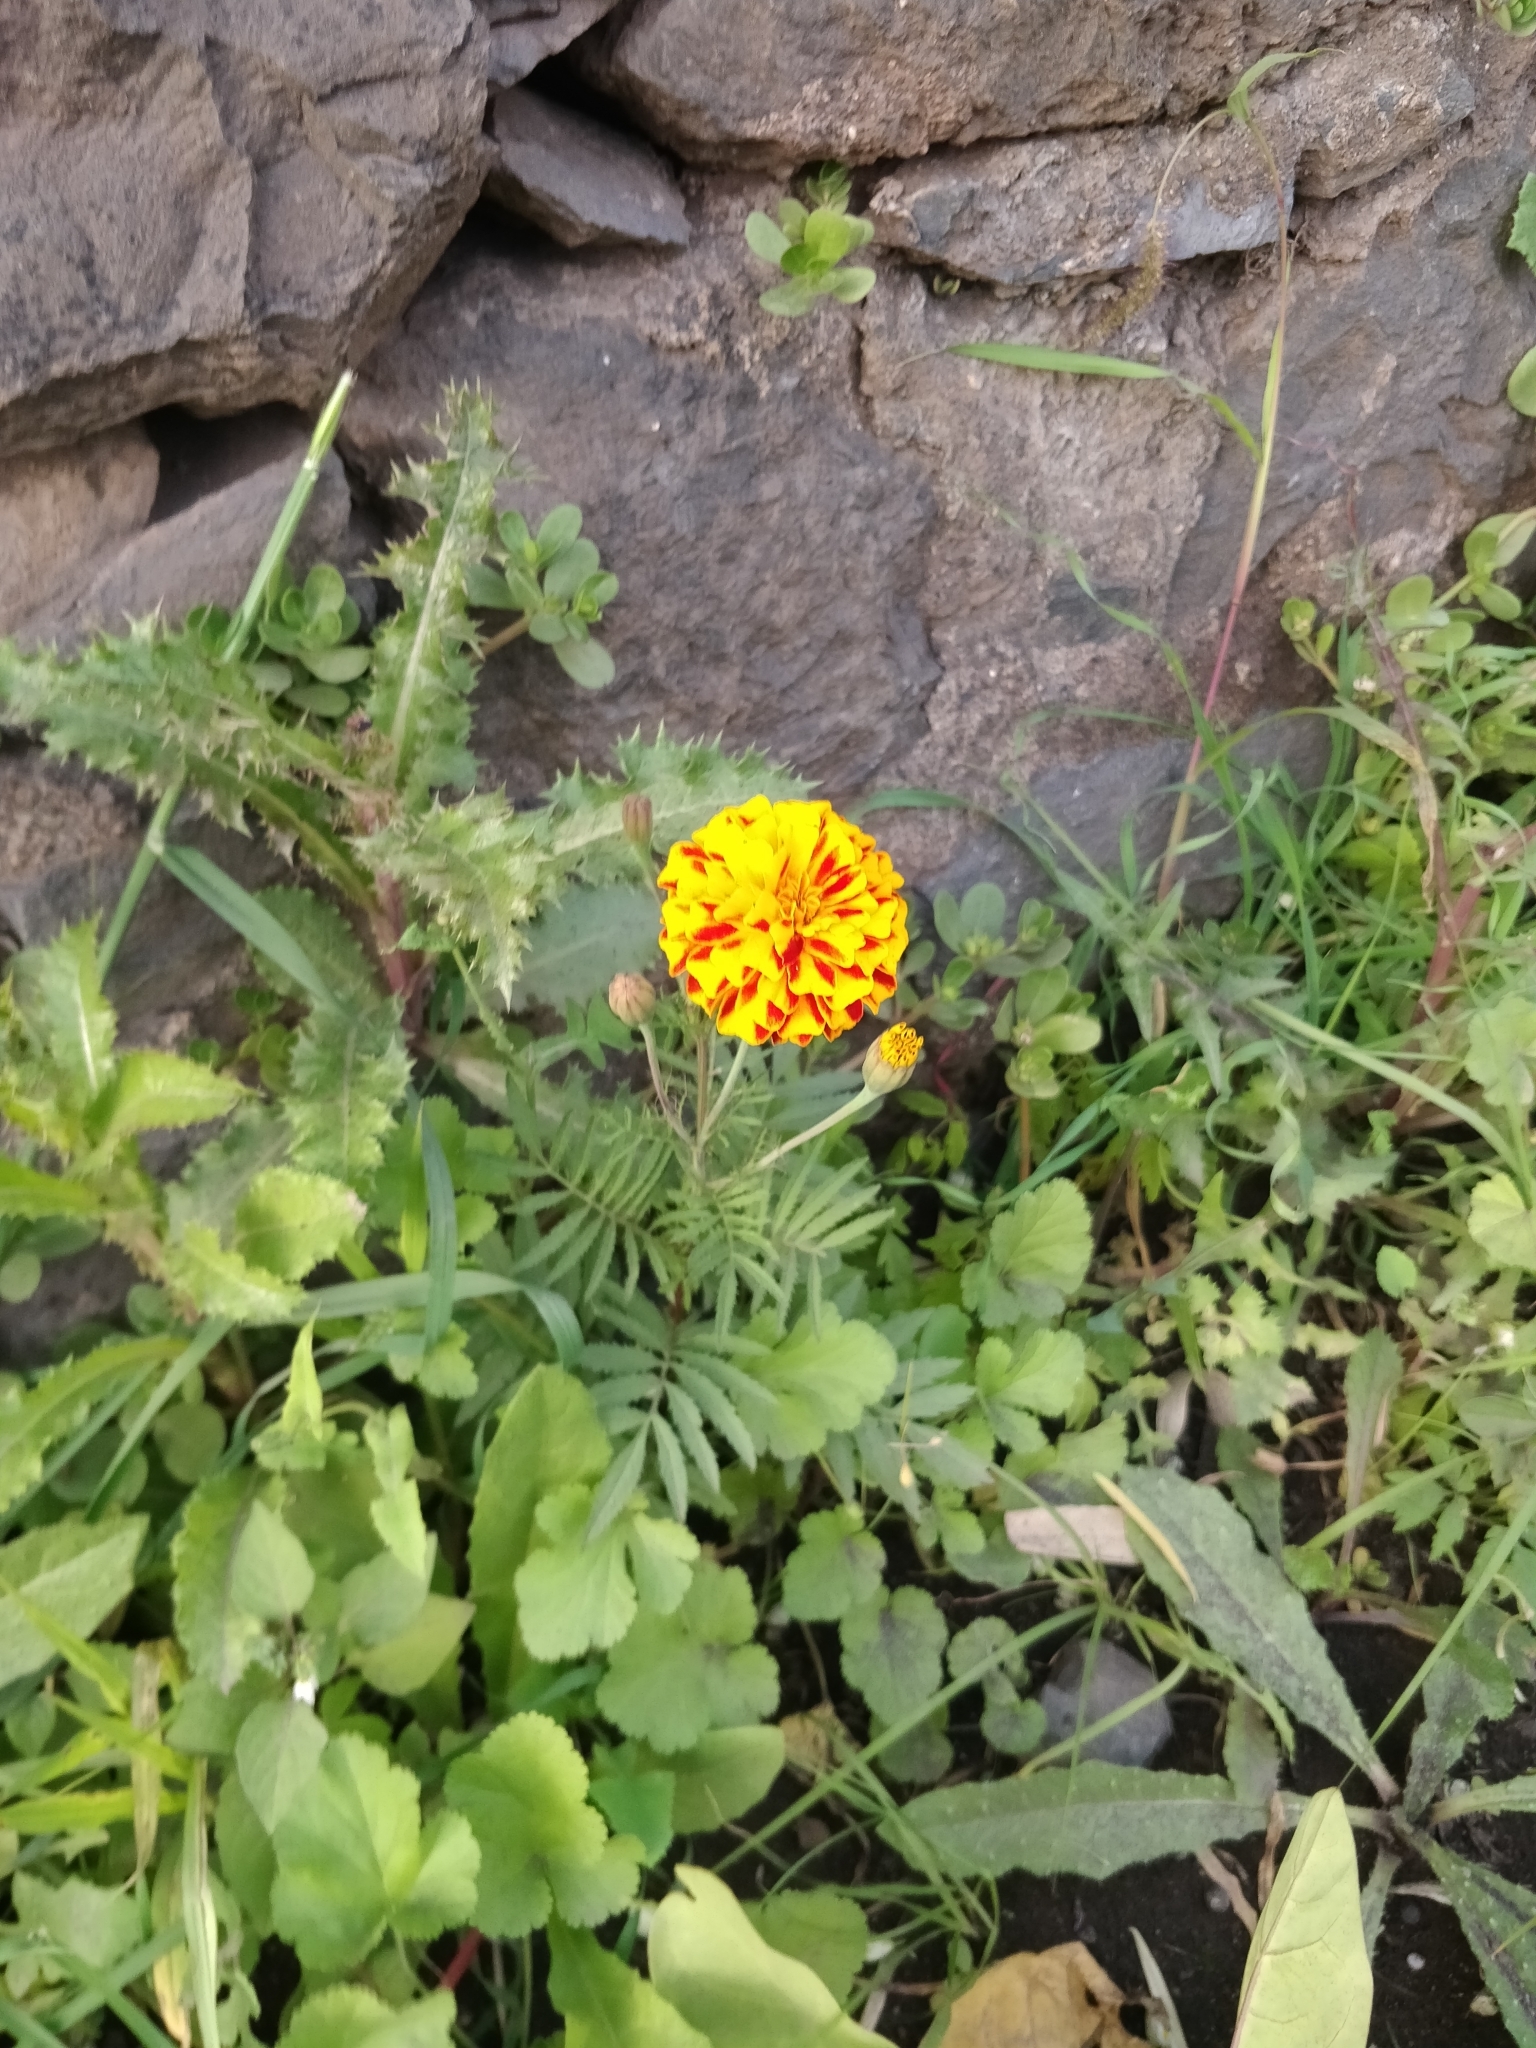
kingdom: Plantae
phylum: Tracheophyta
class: Magnoliopsida
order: Asterales
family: Asteraceae
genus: Tagetes
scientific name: Tagetes erecta
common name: African marigold
